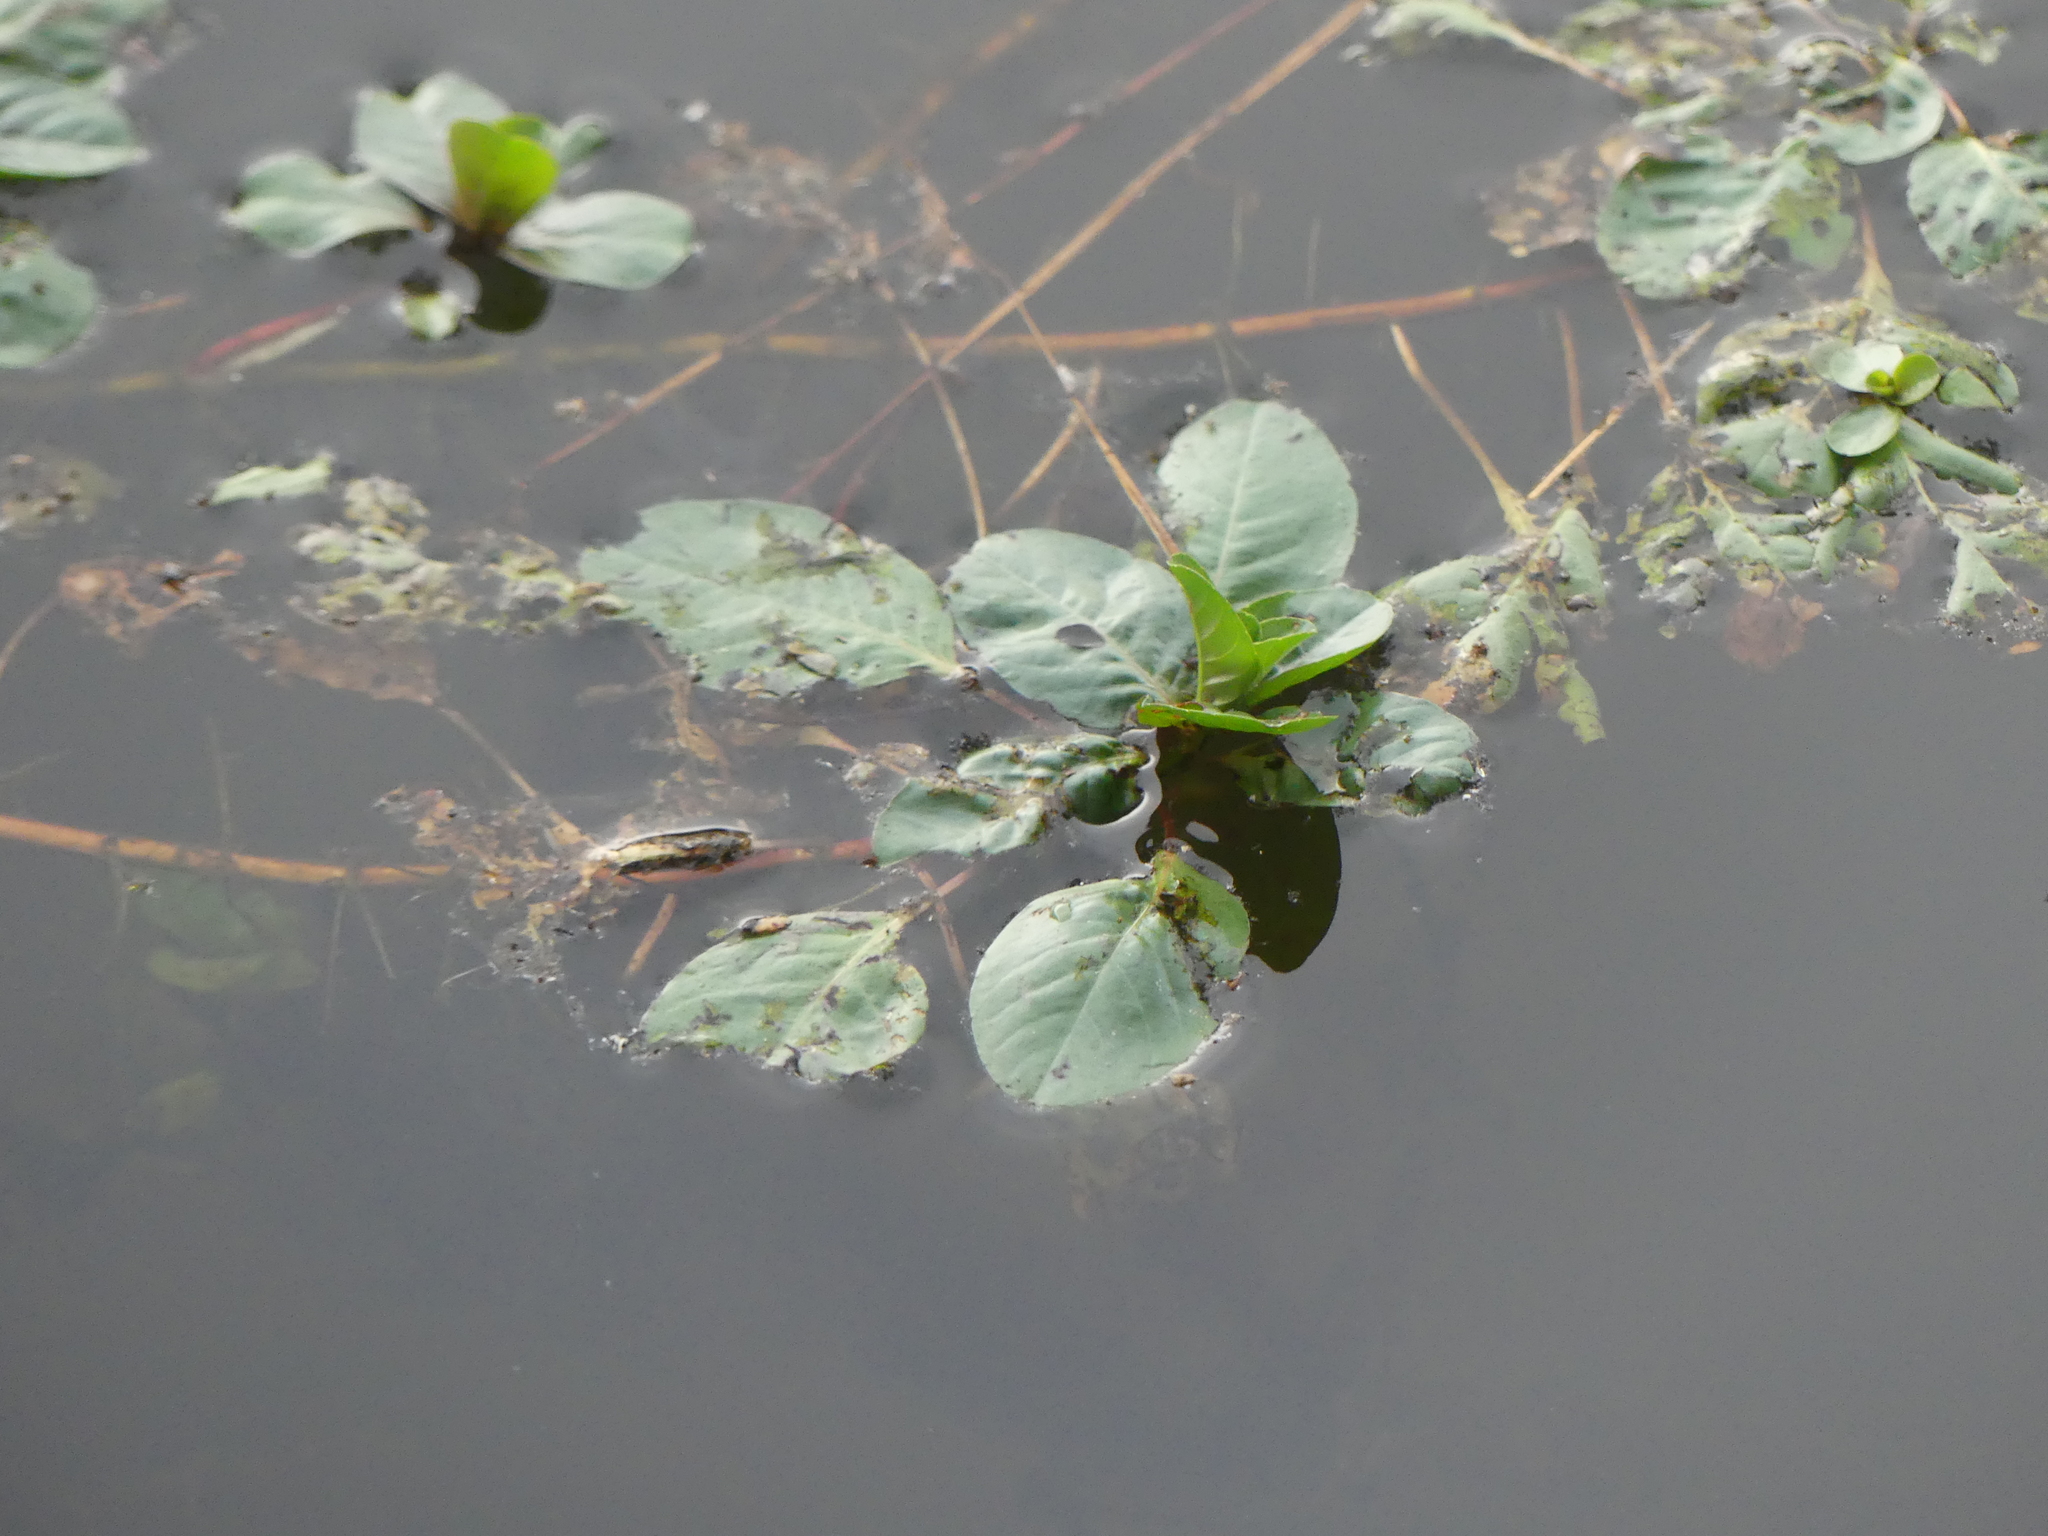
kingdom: Plantae
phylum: Tracheophyta
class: Magnoliopsida
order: Myrtales
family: Onagraceae
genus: Ludwigia
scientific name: Ludwigia peploides
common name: Floating primrose-willow
